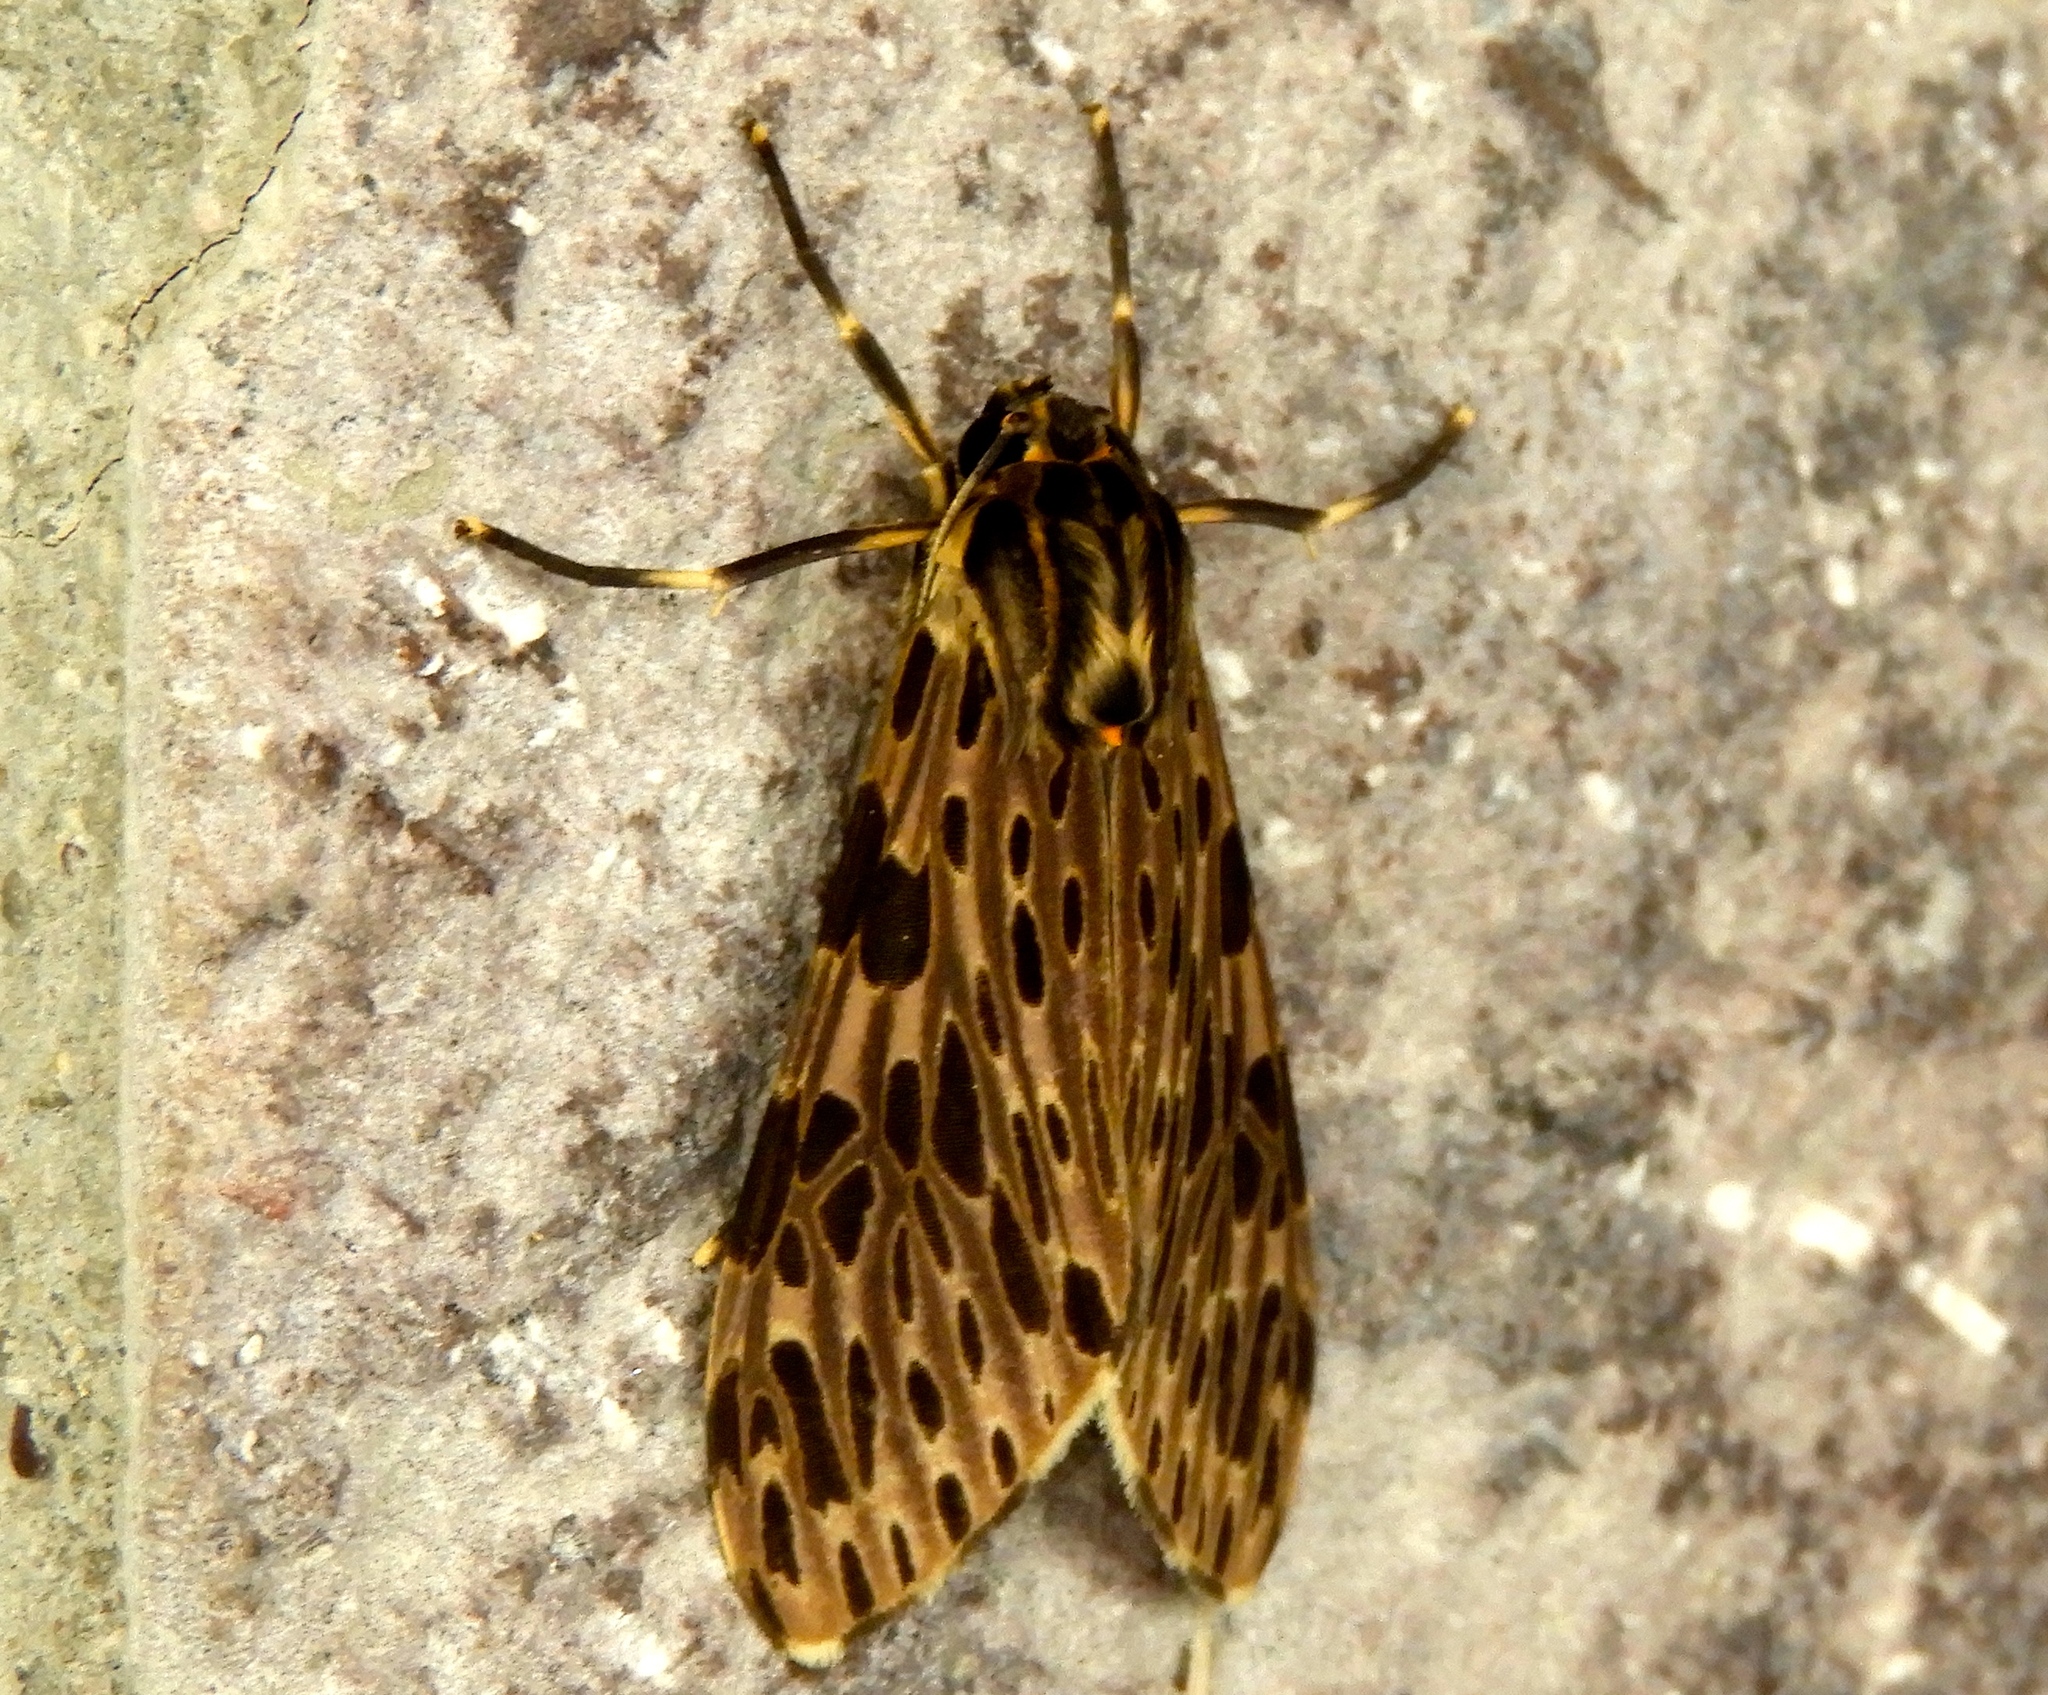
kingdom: Animalia
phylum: Arthropoda
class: Insecta
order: Lepidoptera
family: Erebidae
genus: Eucereon
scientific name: Eucereon
